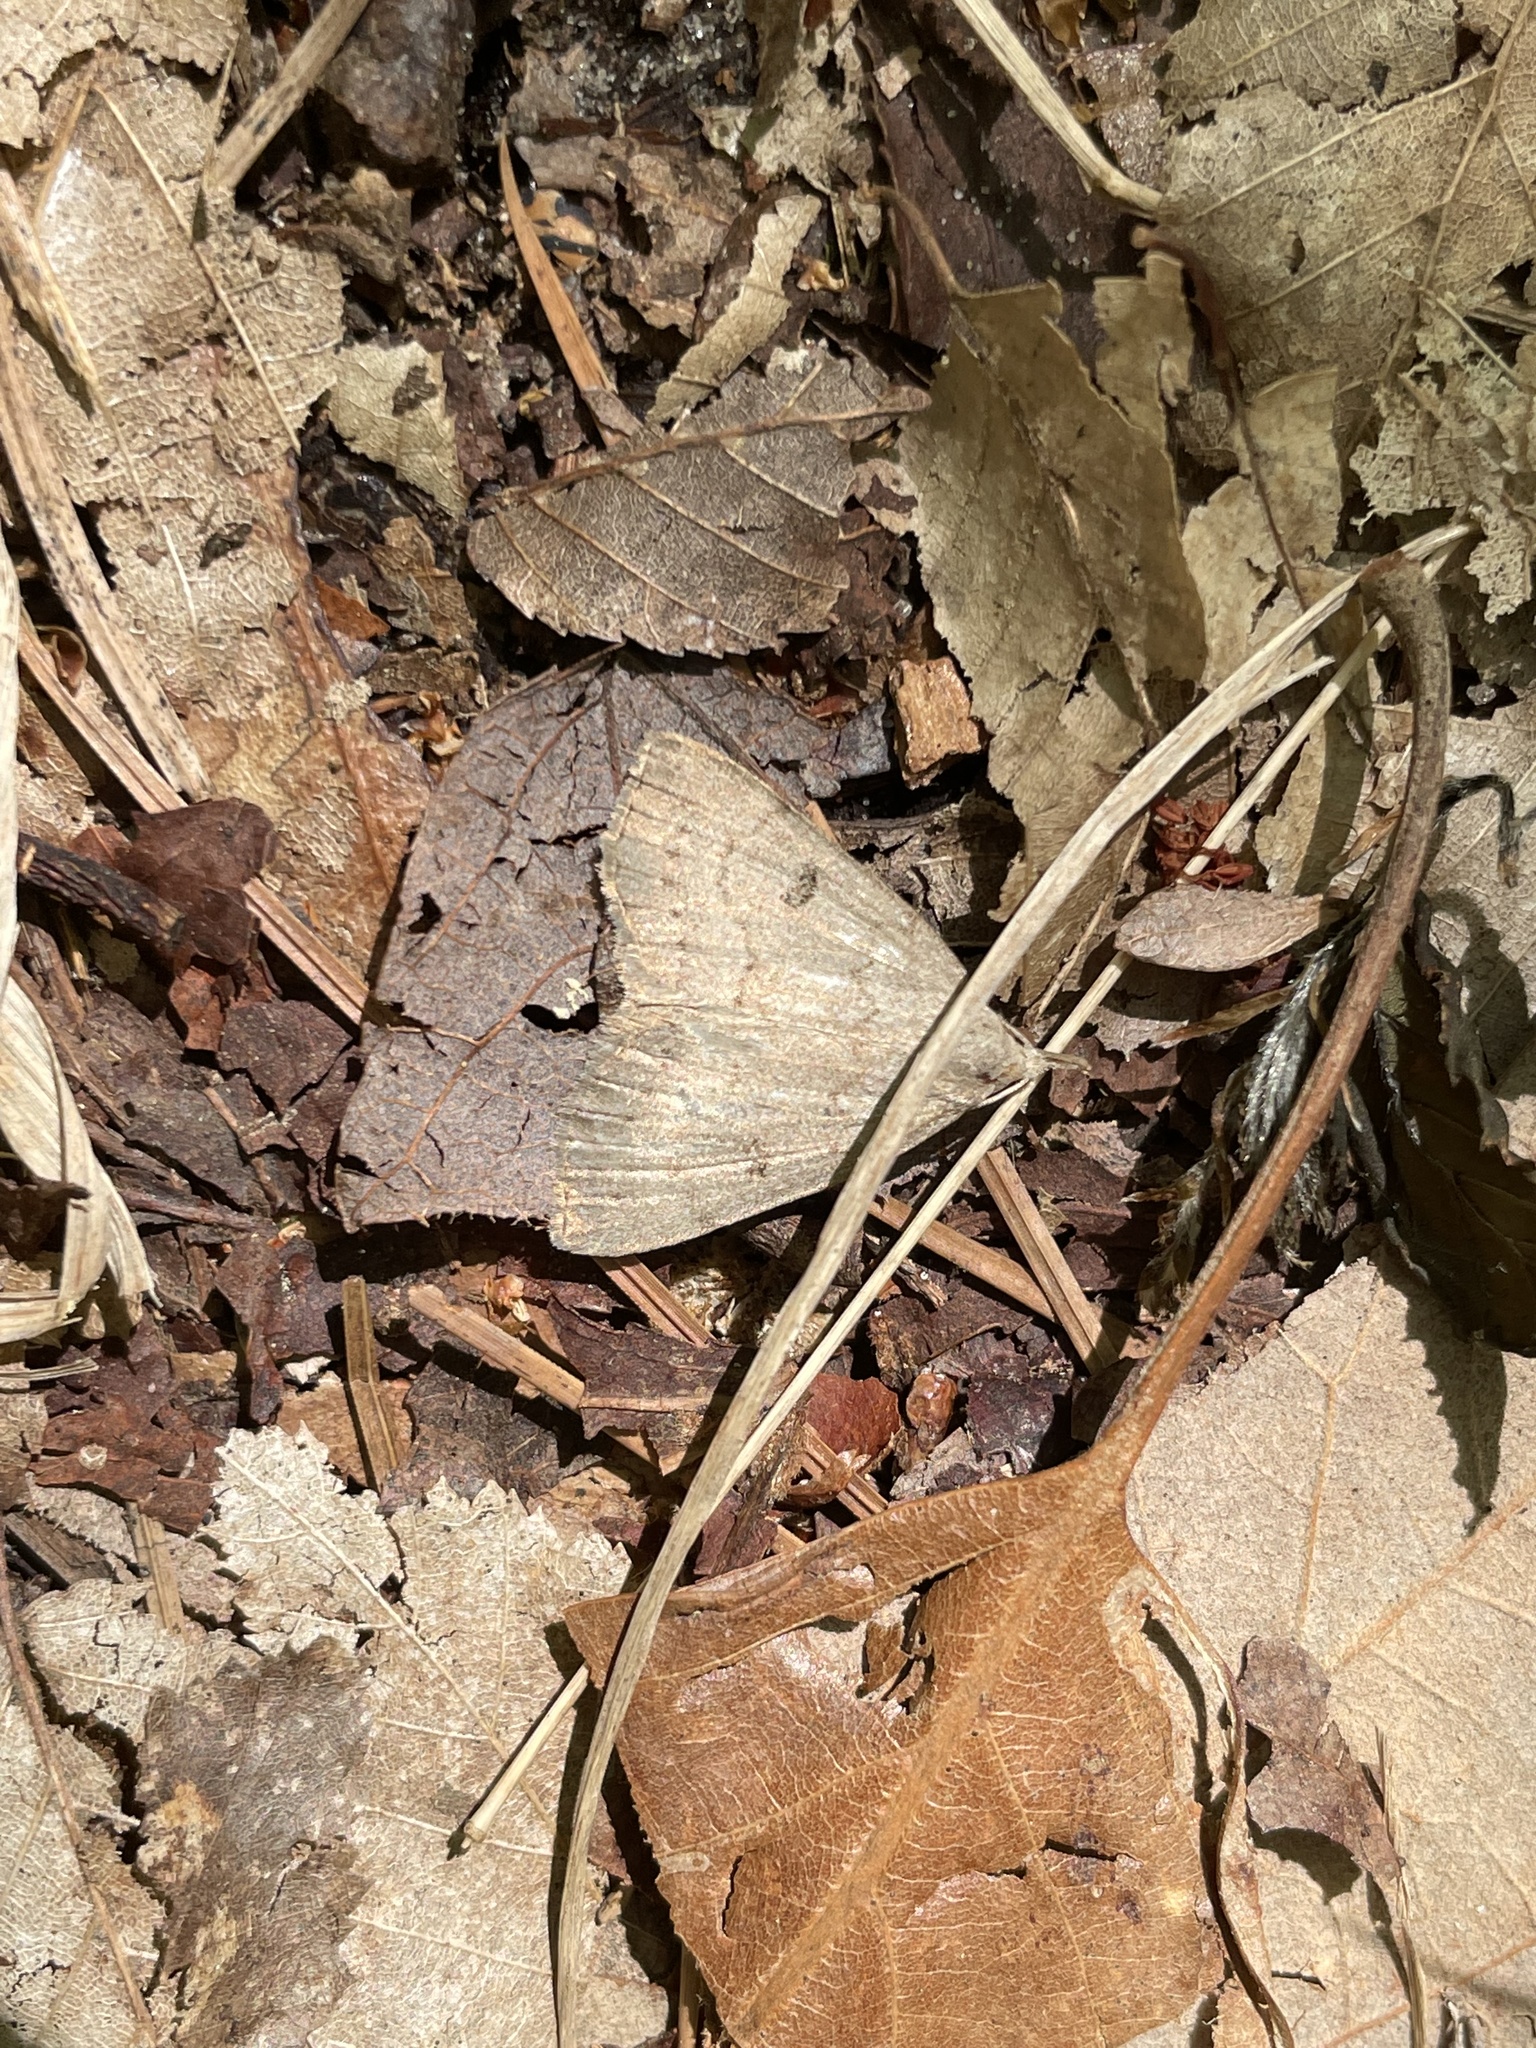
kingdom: Animalia
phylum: Arthropoda
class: Insecta
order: Lepidoptera
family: Erebidae
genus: Macrochilo
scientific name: Macrochilo morbidalis
